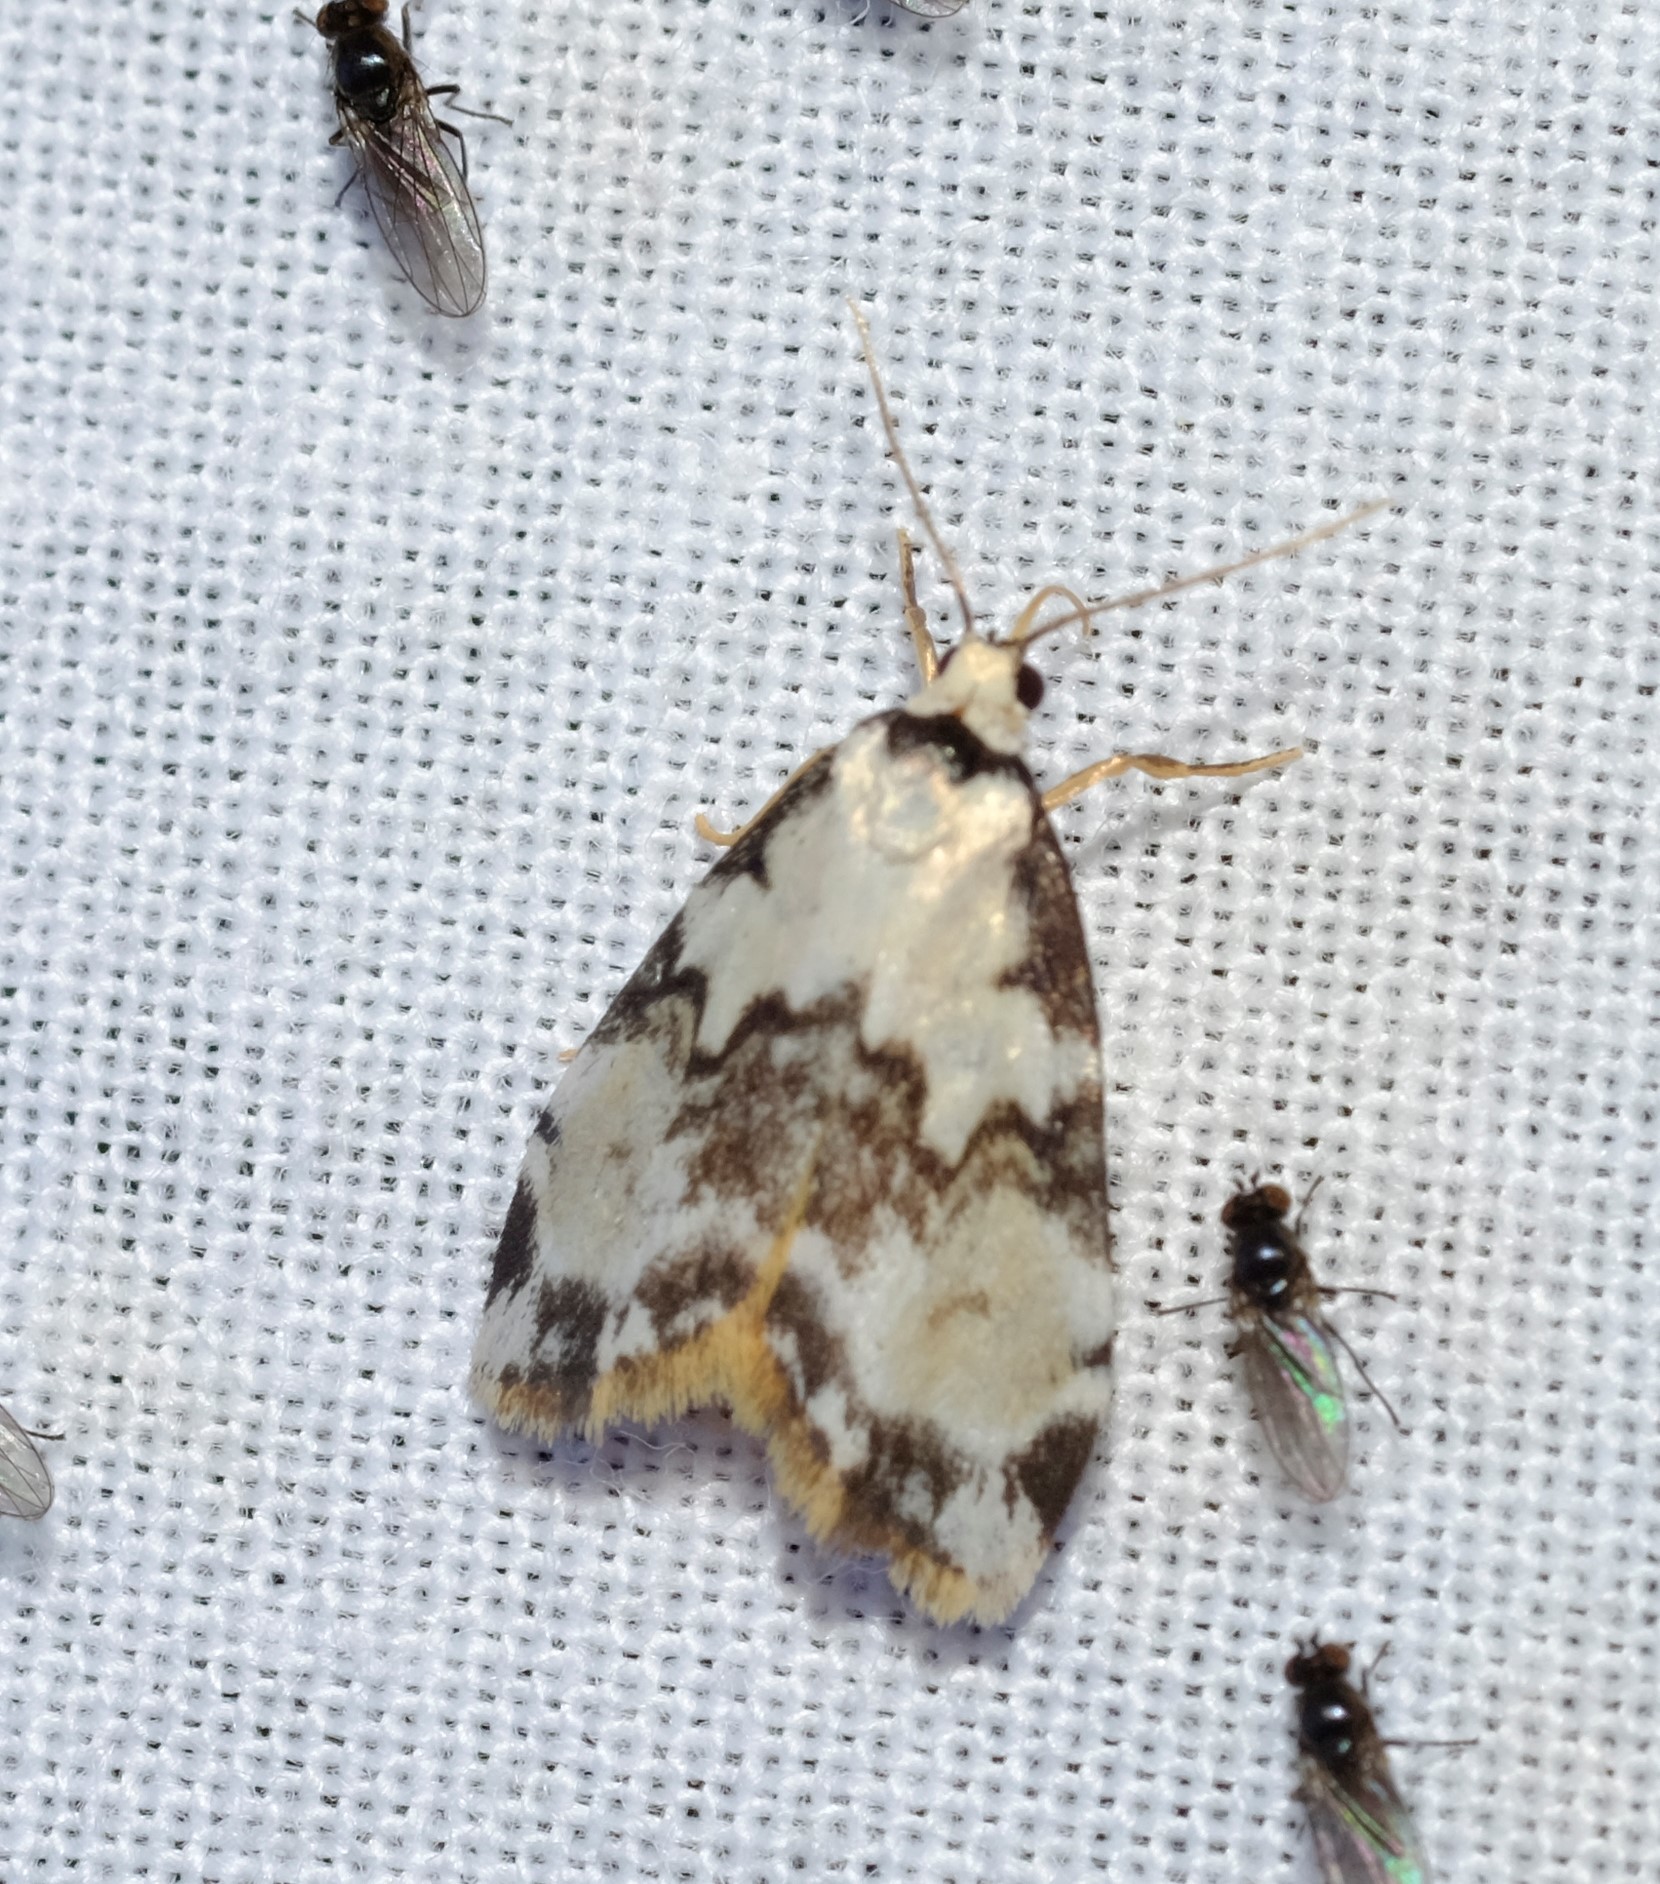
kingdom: Animalia
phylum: Arthropoda
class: Insecta
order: Lepidoptera
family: Erebidae
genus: Thallarcha
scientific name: Thallarcha epiostola
